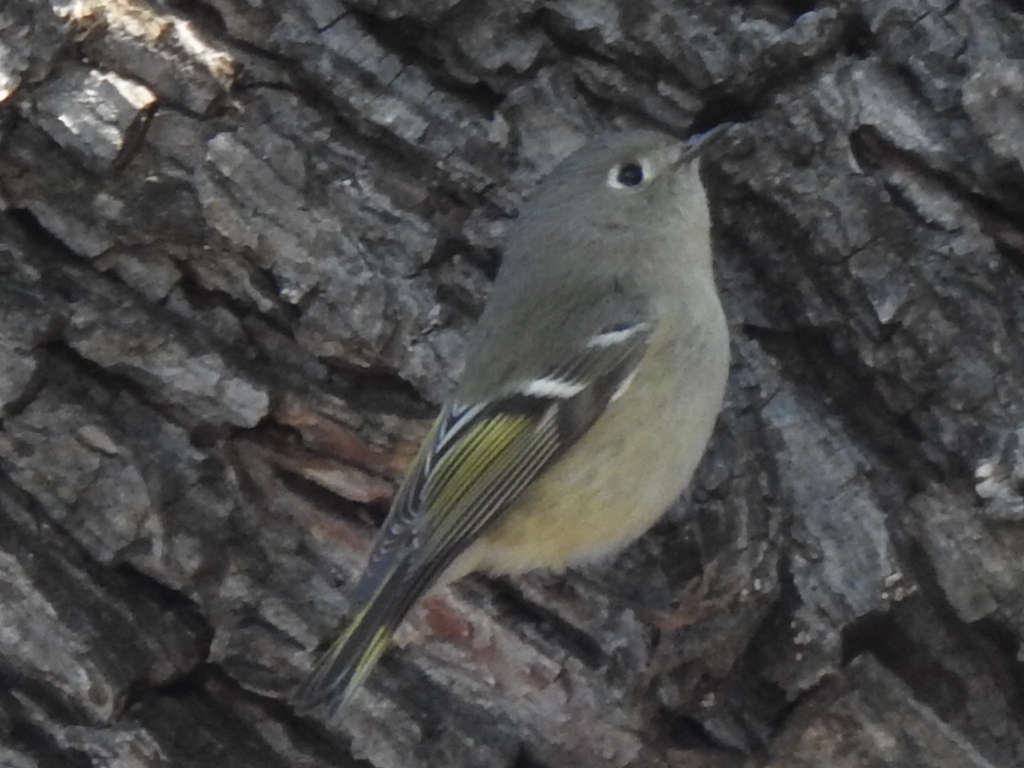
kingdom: Animalia
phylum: Chordata
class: Aves
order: Passeriformes
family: Regulidae
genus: Regulus
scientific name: Regulus calendula
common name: Ruby-crowned kinglet
